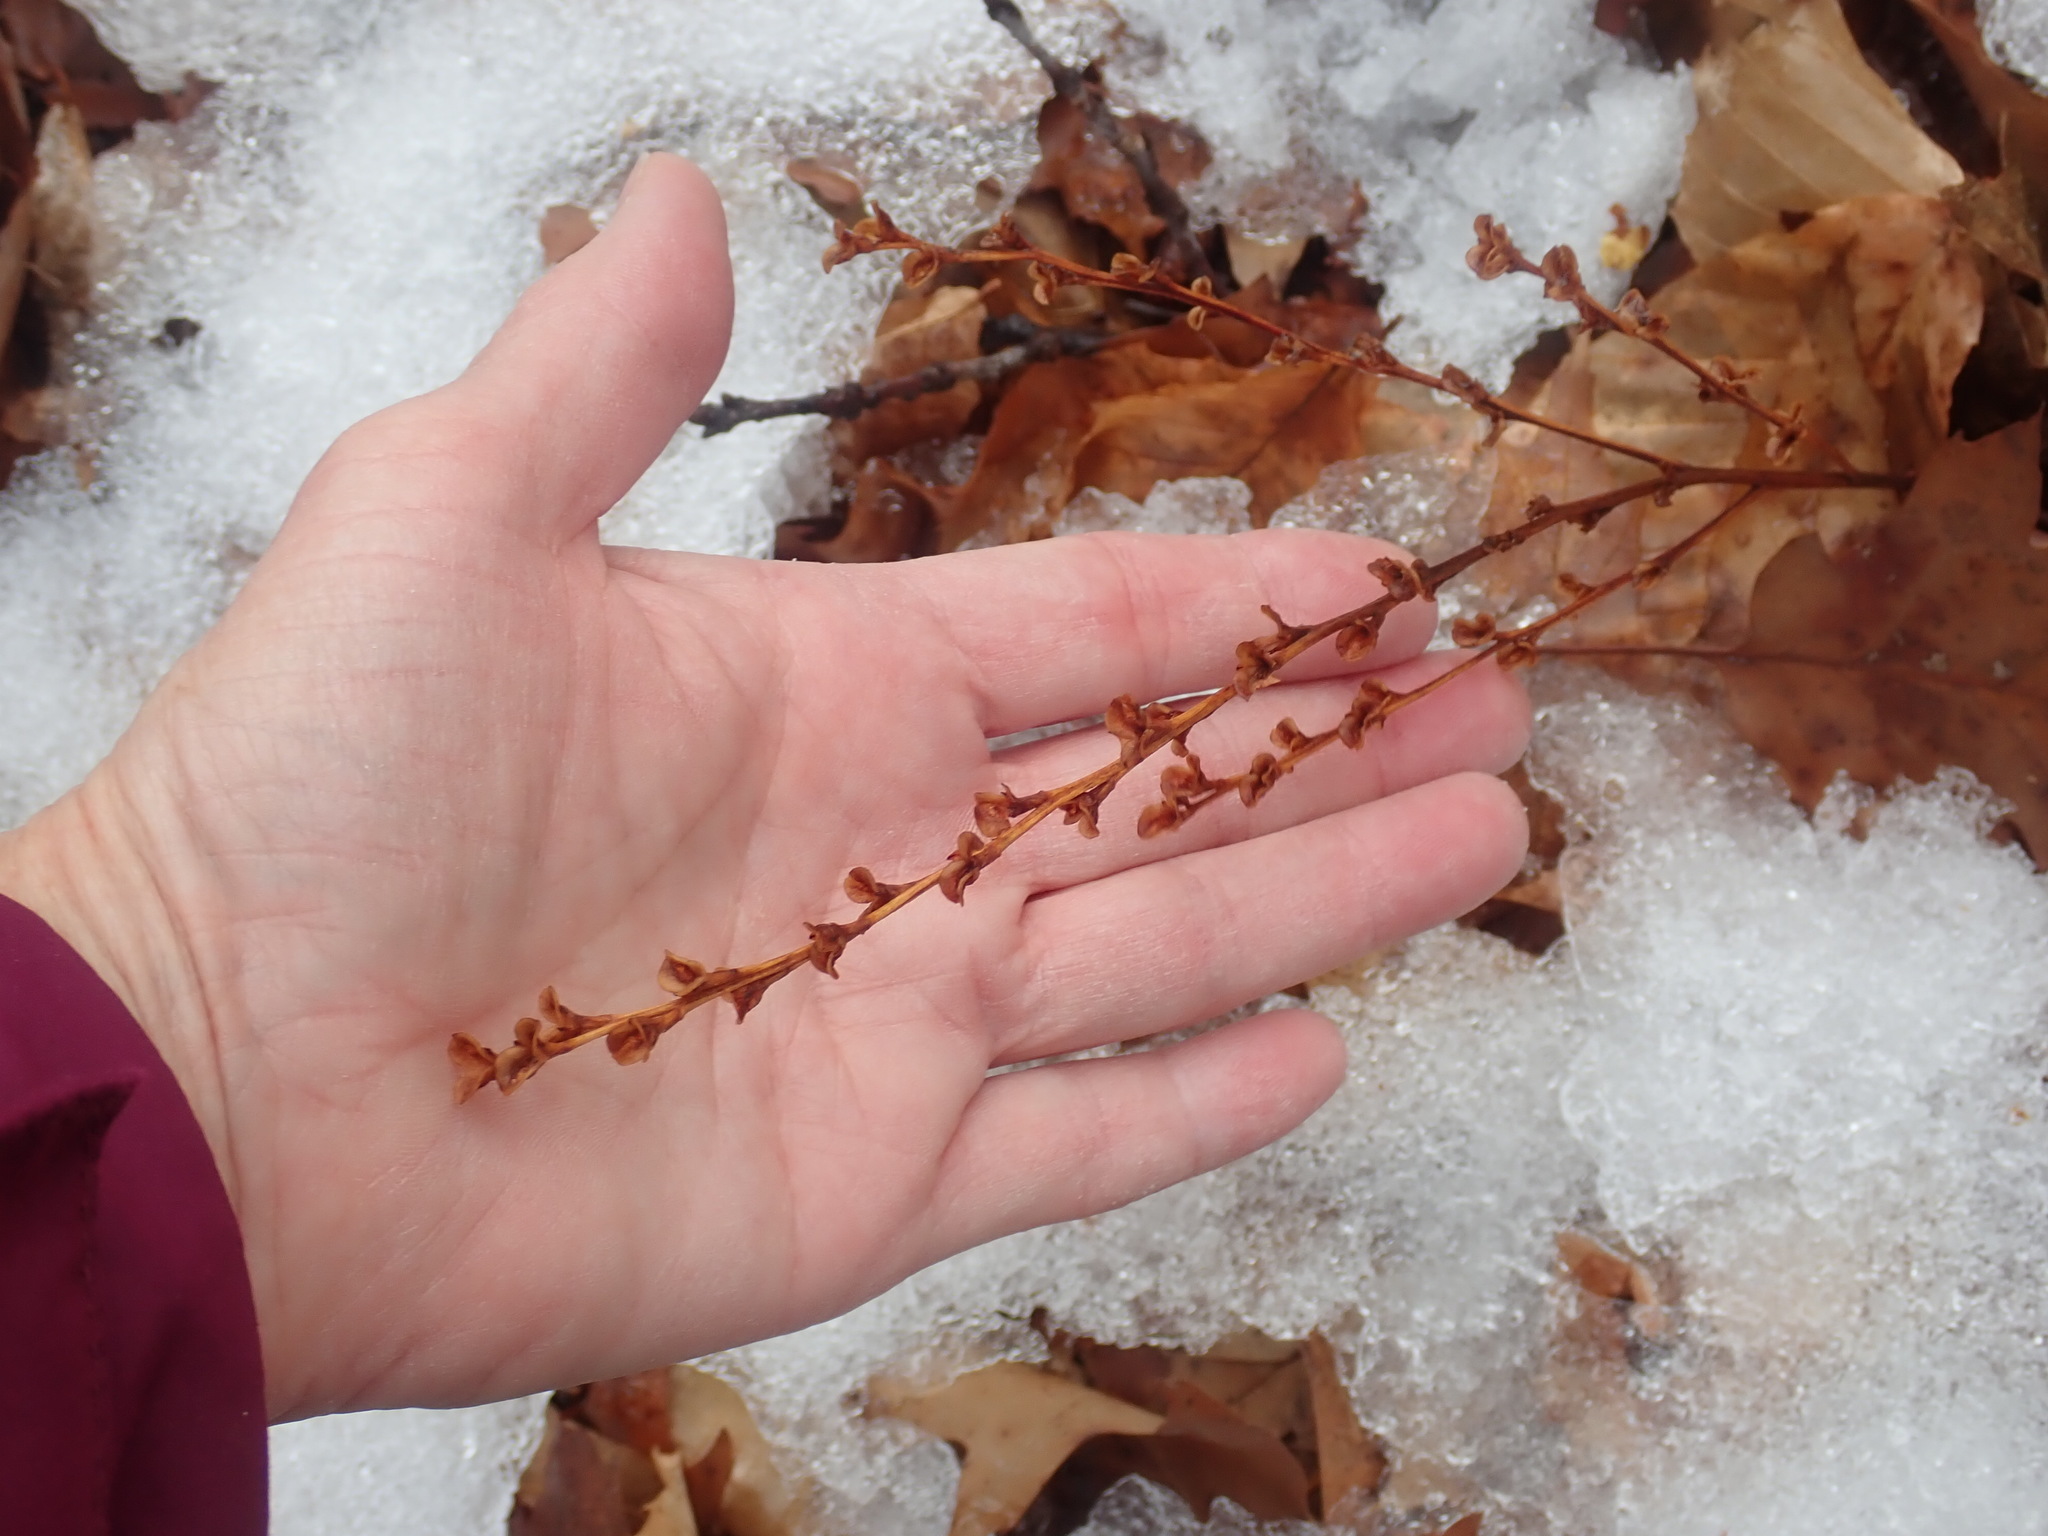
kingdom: Plantae
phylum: Tracheophyta
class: Magnoliopsida
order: Lamiales
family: Orobanchaceae
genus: Epifagus
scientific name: Epifagus virginiana
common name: Beechdrops
